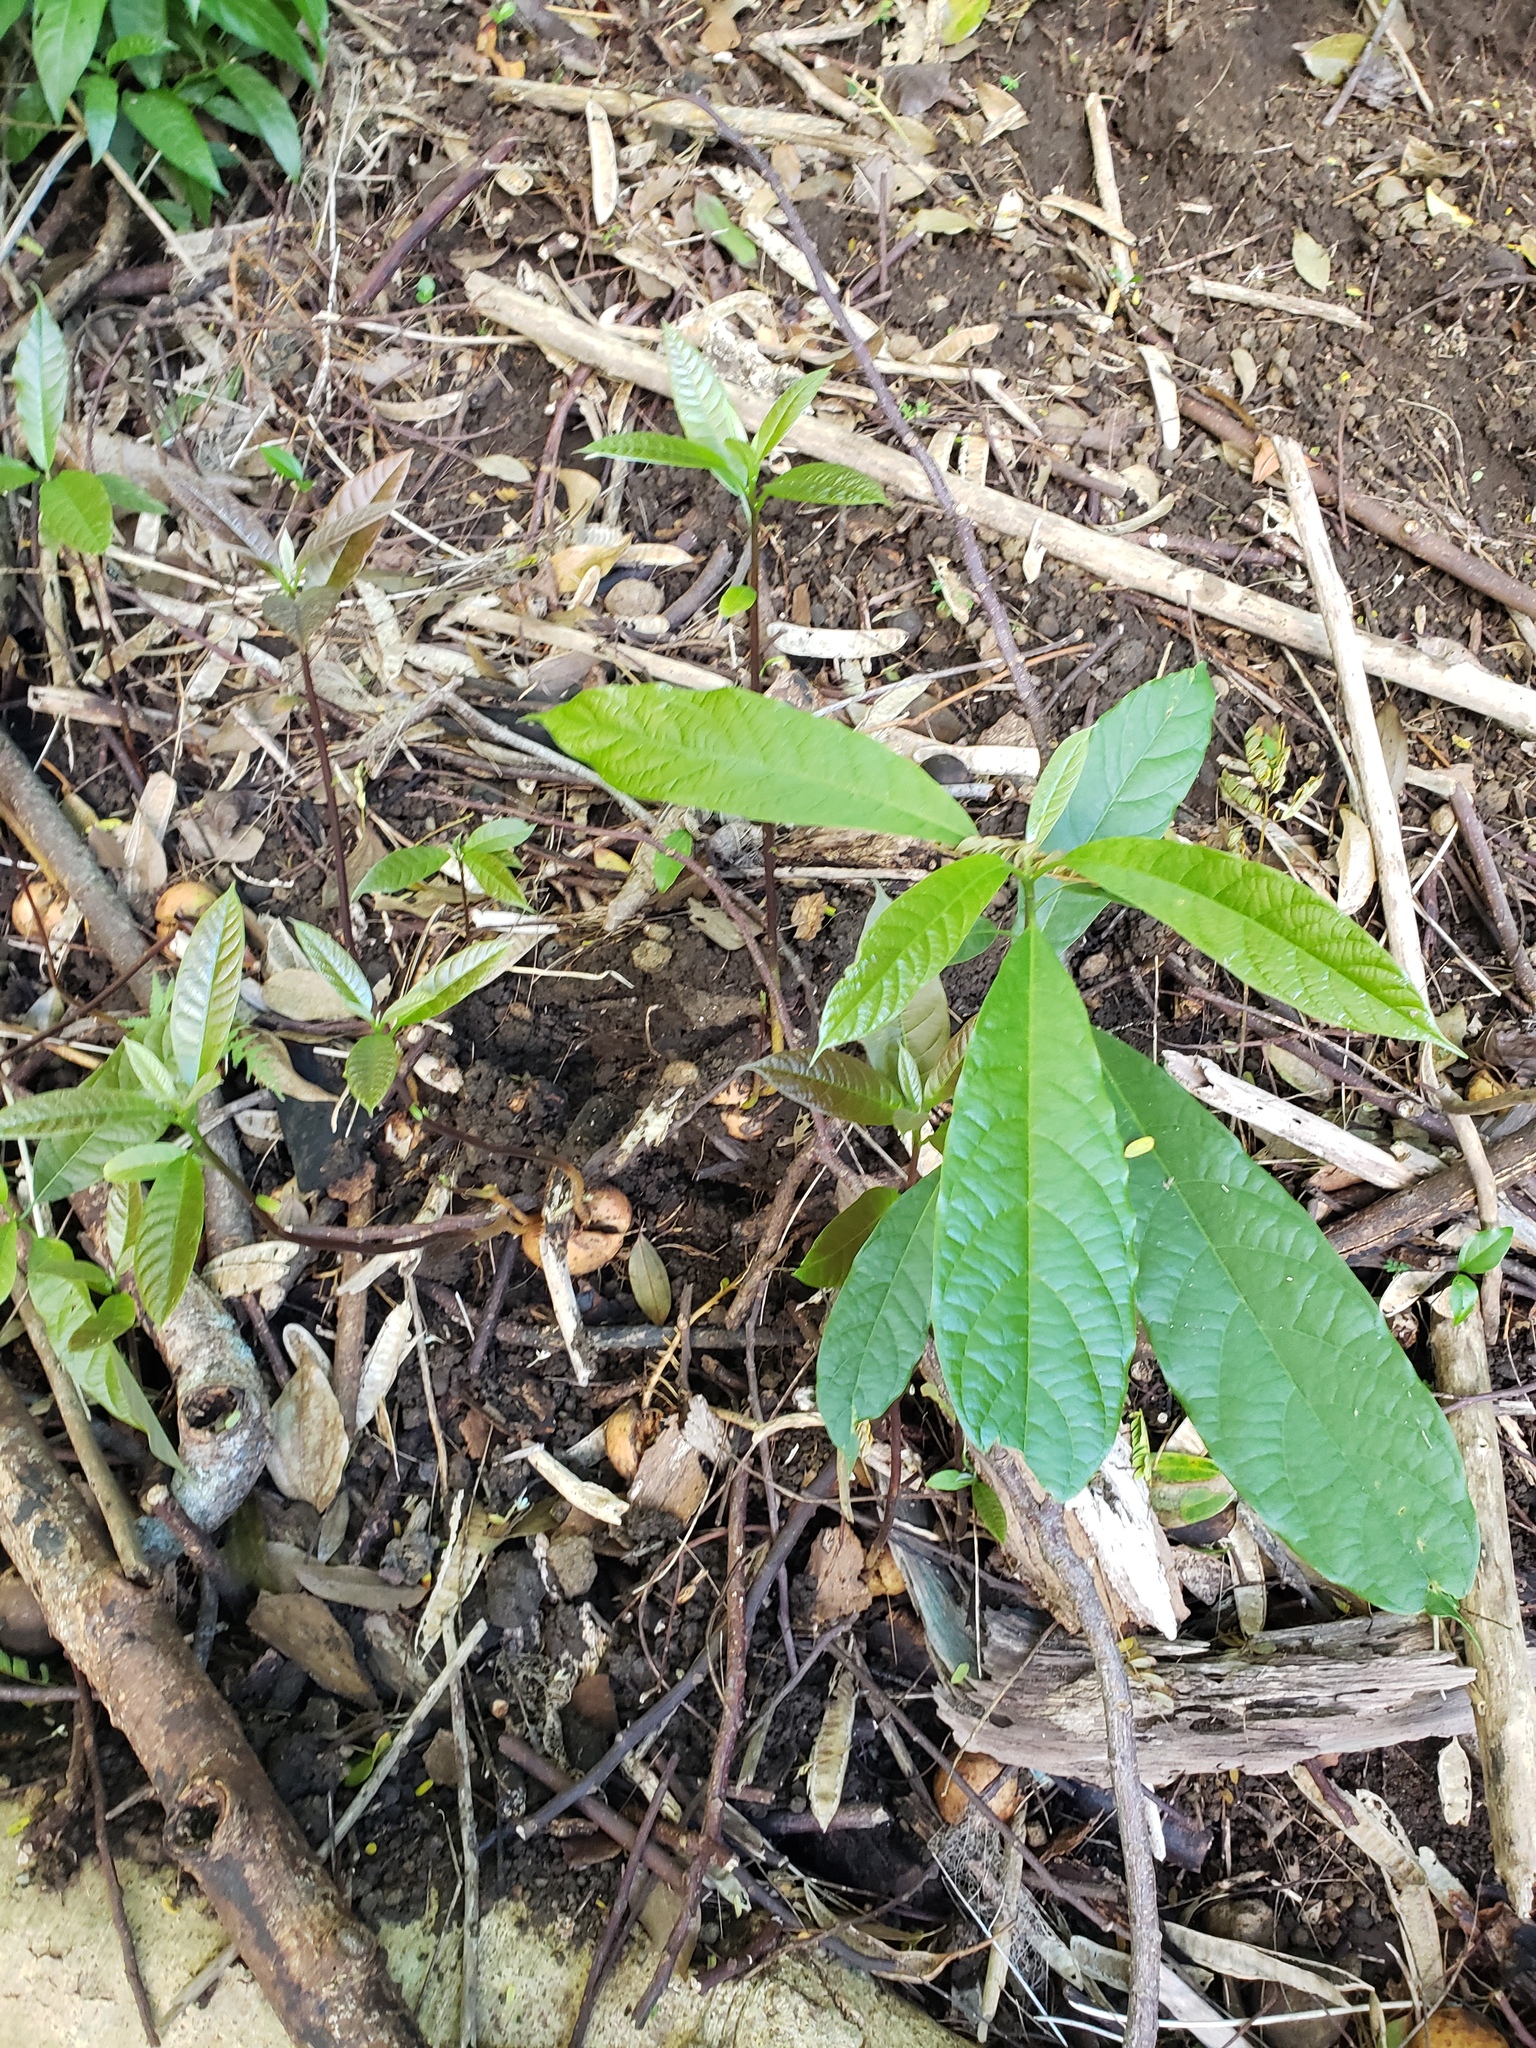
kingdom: Plantae
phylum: Tracheophyta
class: Magnoliopsida
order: Laurales
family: Lauraceae
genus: Persea
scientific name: Persea americana
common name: Avocado
